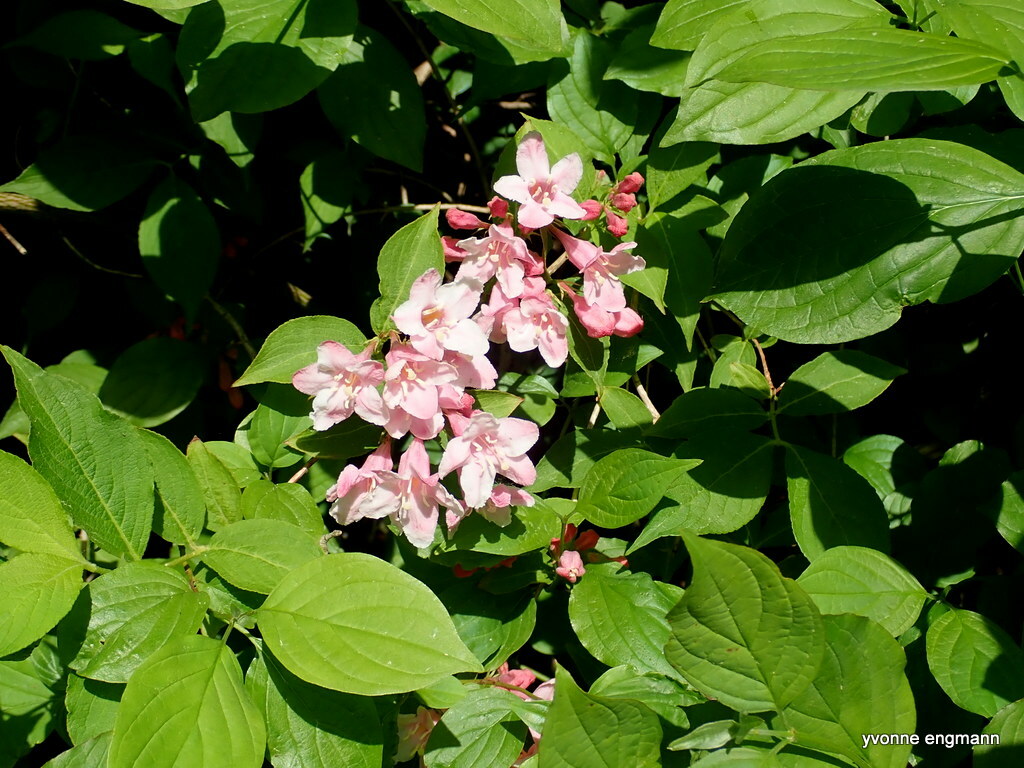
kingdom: Plantae
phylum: Tracheophyta
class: Magnoliopsida
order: Dipsacales
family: Caprifoliaceae
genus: Weigela
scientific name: Weigela
